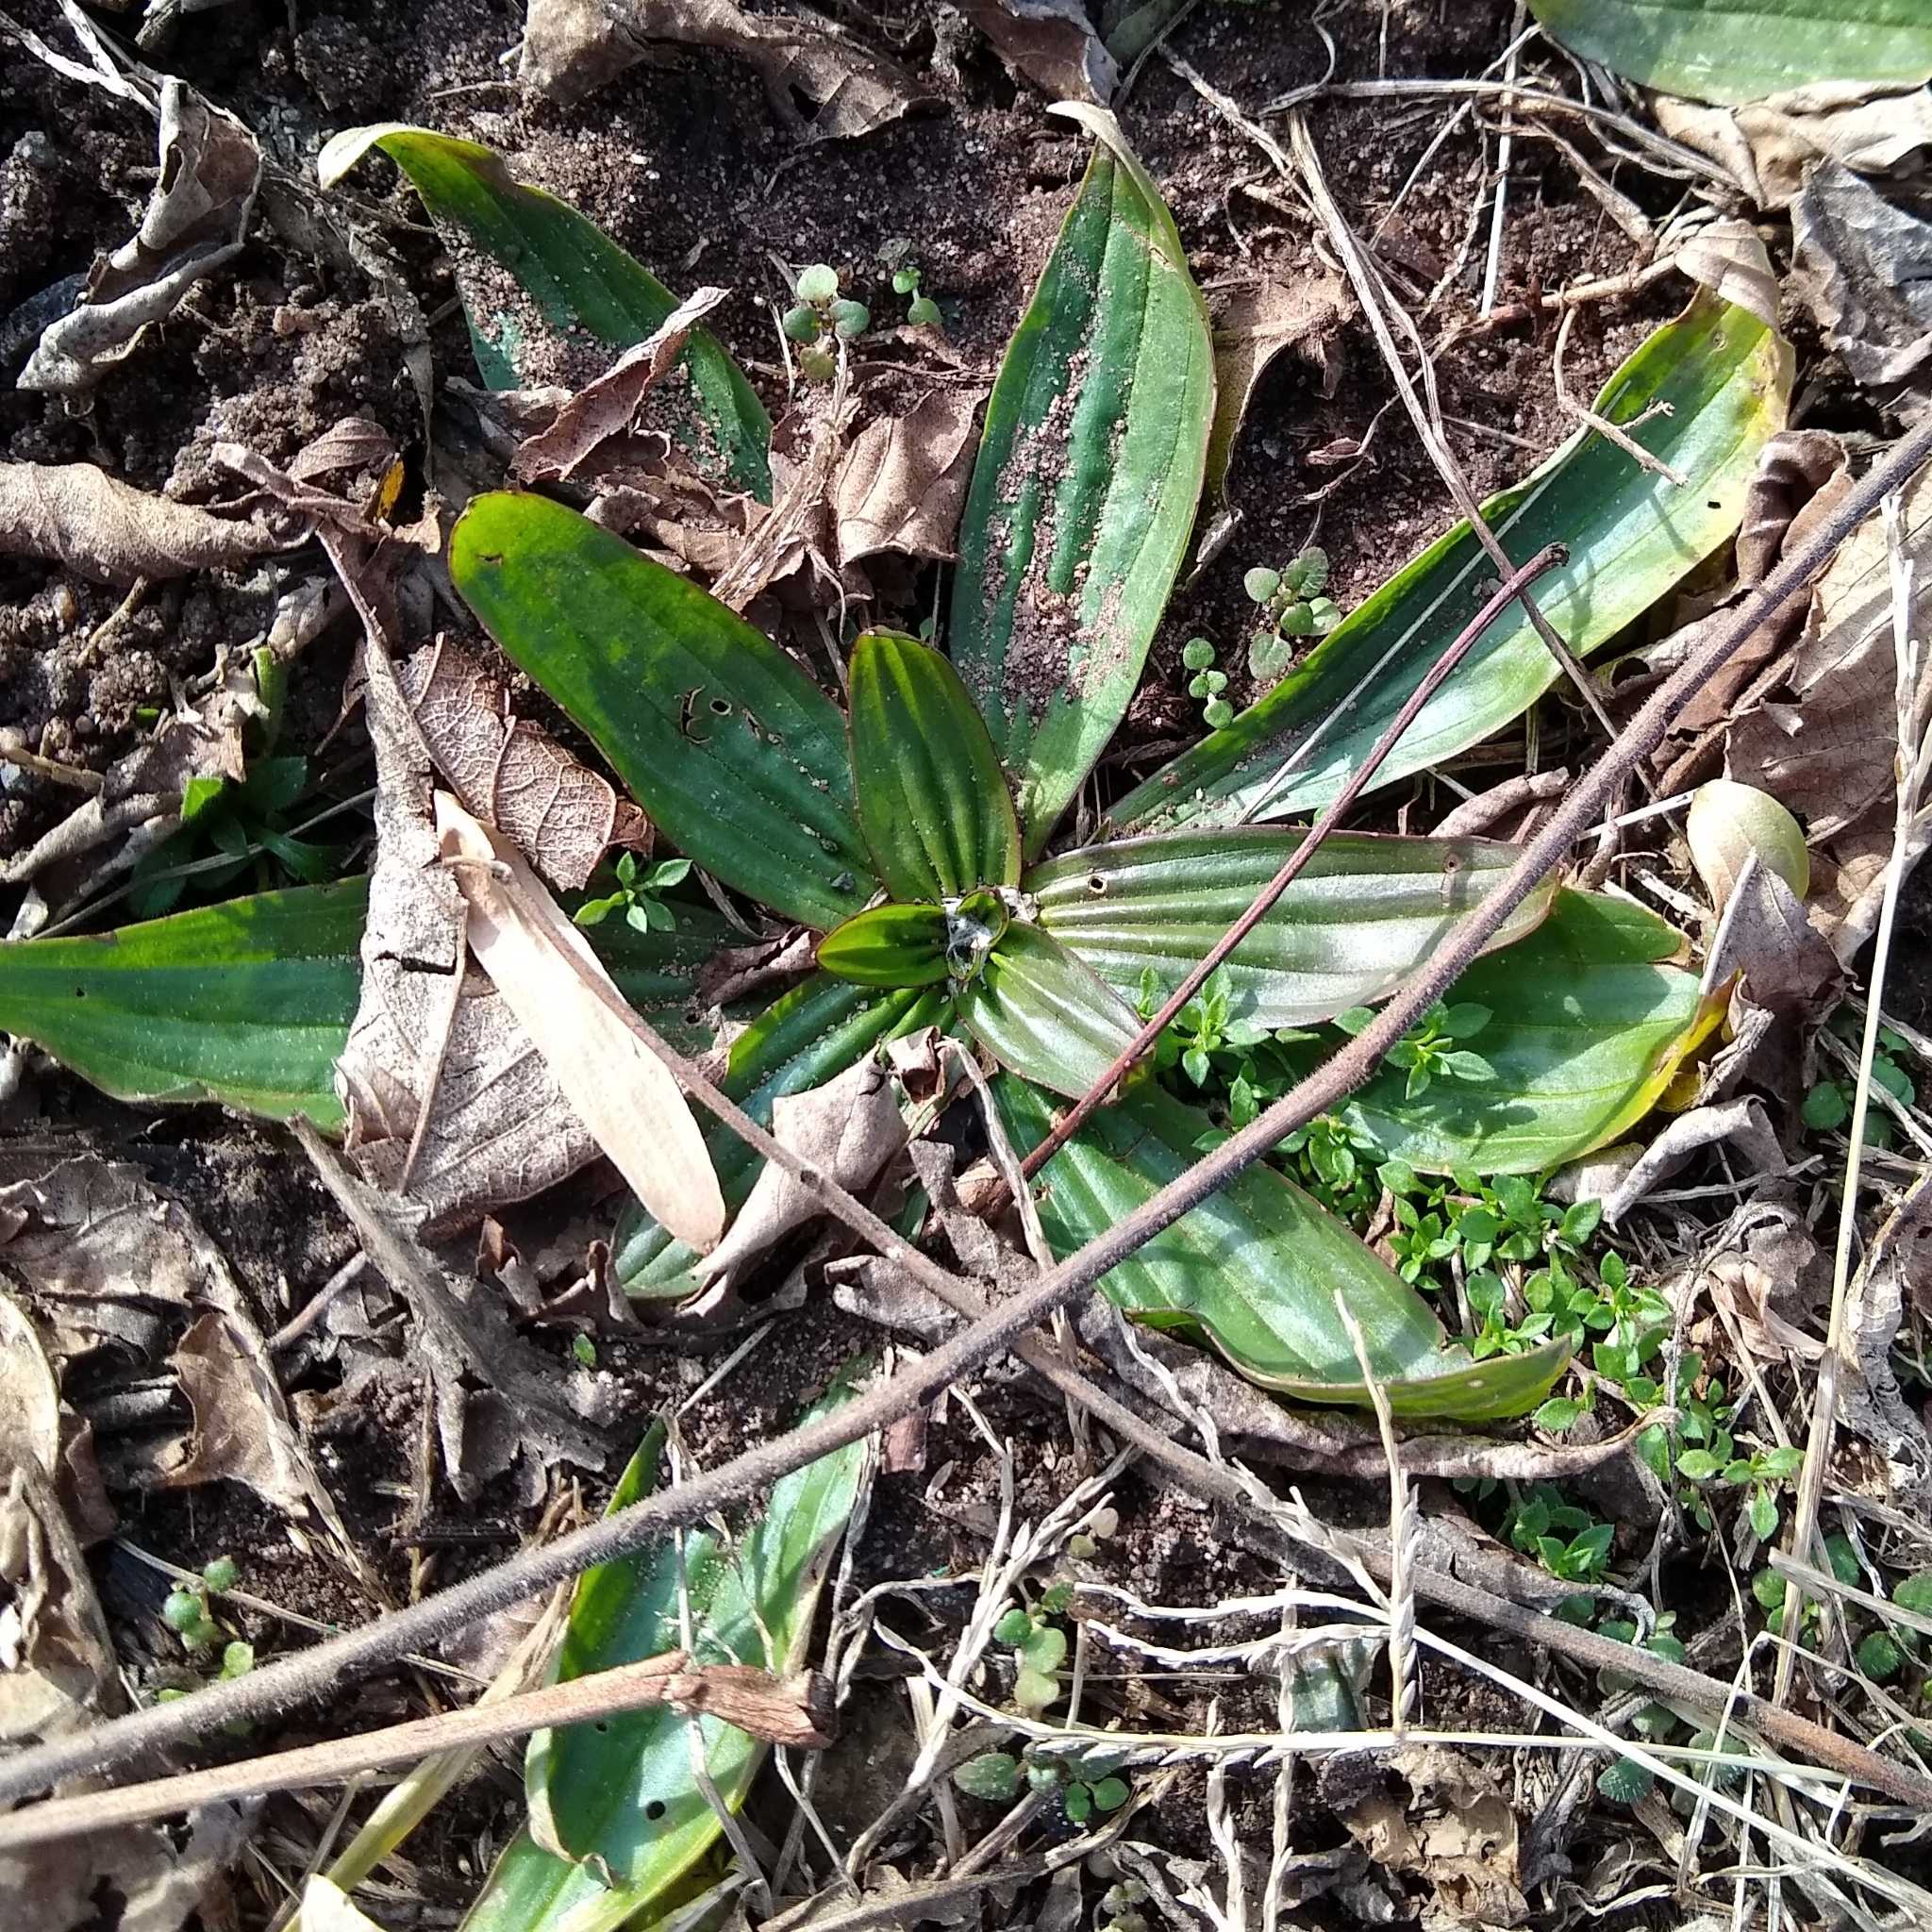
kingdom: Plantae
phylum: Tracheophyta
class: Magnoliopsida
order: Lamiales
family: Plantaginaceae
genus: Plantago
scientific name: Plantago lanceolata
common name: Ribwort plantain
